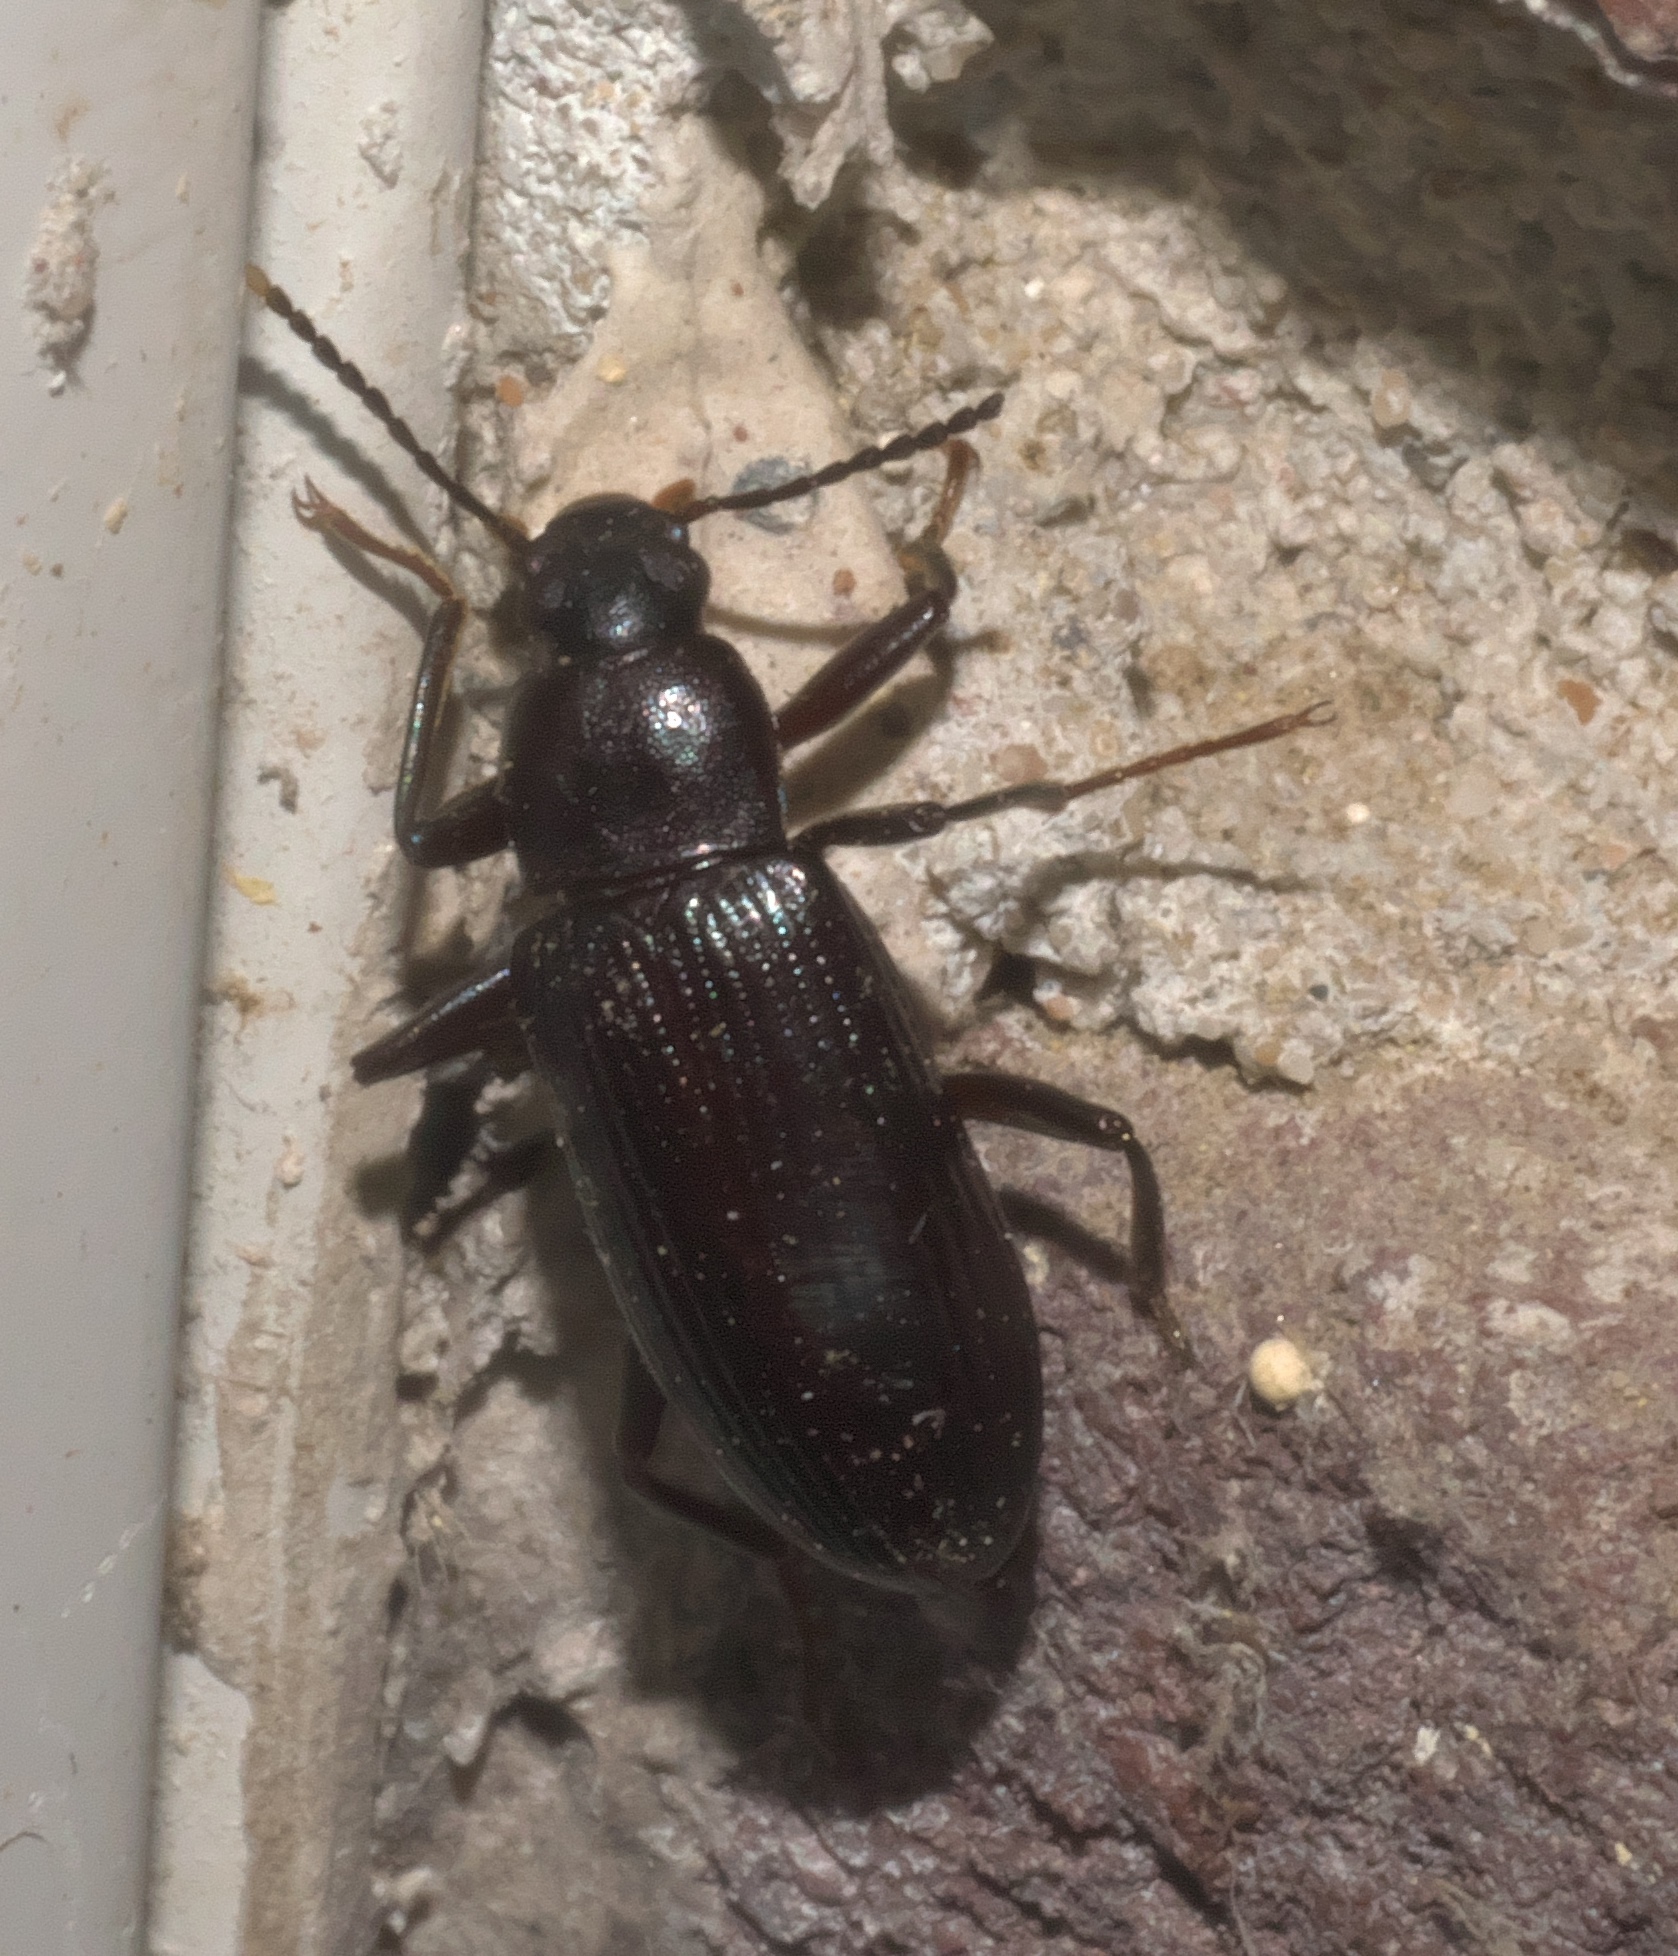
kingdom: Animalia
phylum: Arthropoda
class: Insecta
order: Coleoptera
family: Tenebrionidae
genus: Strongylium
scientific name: Strongylium terminatum
